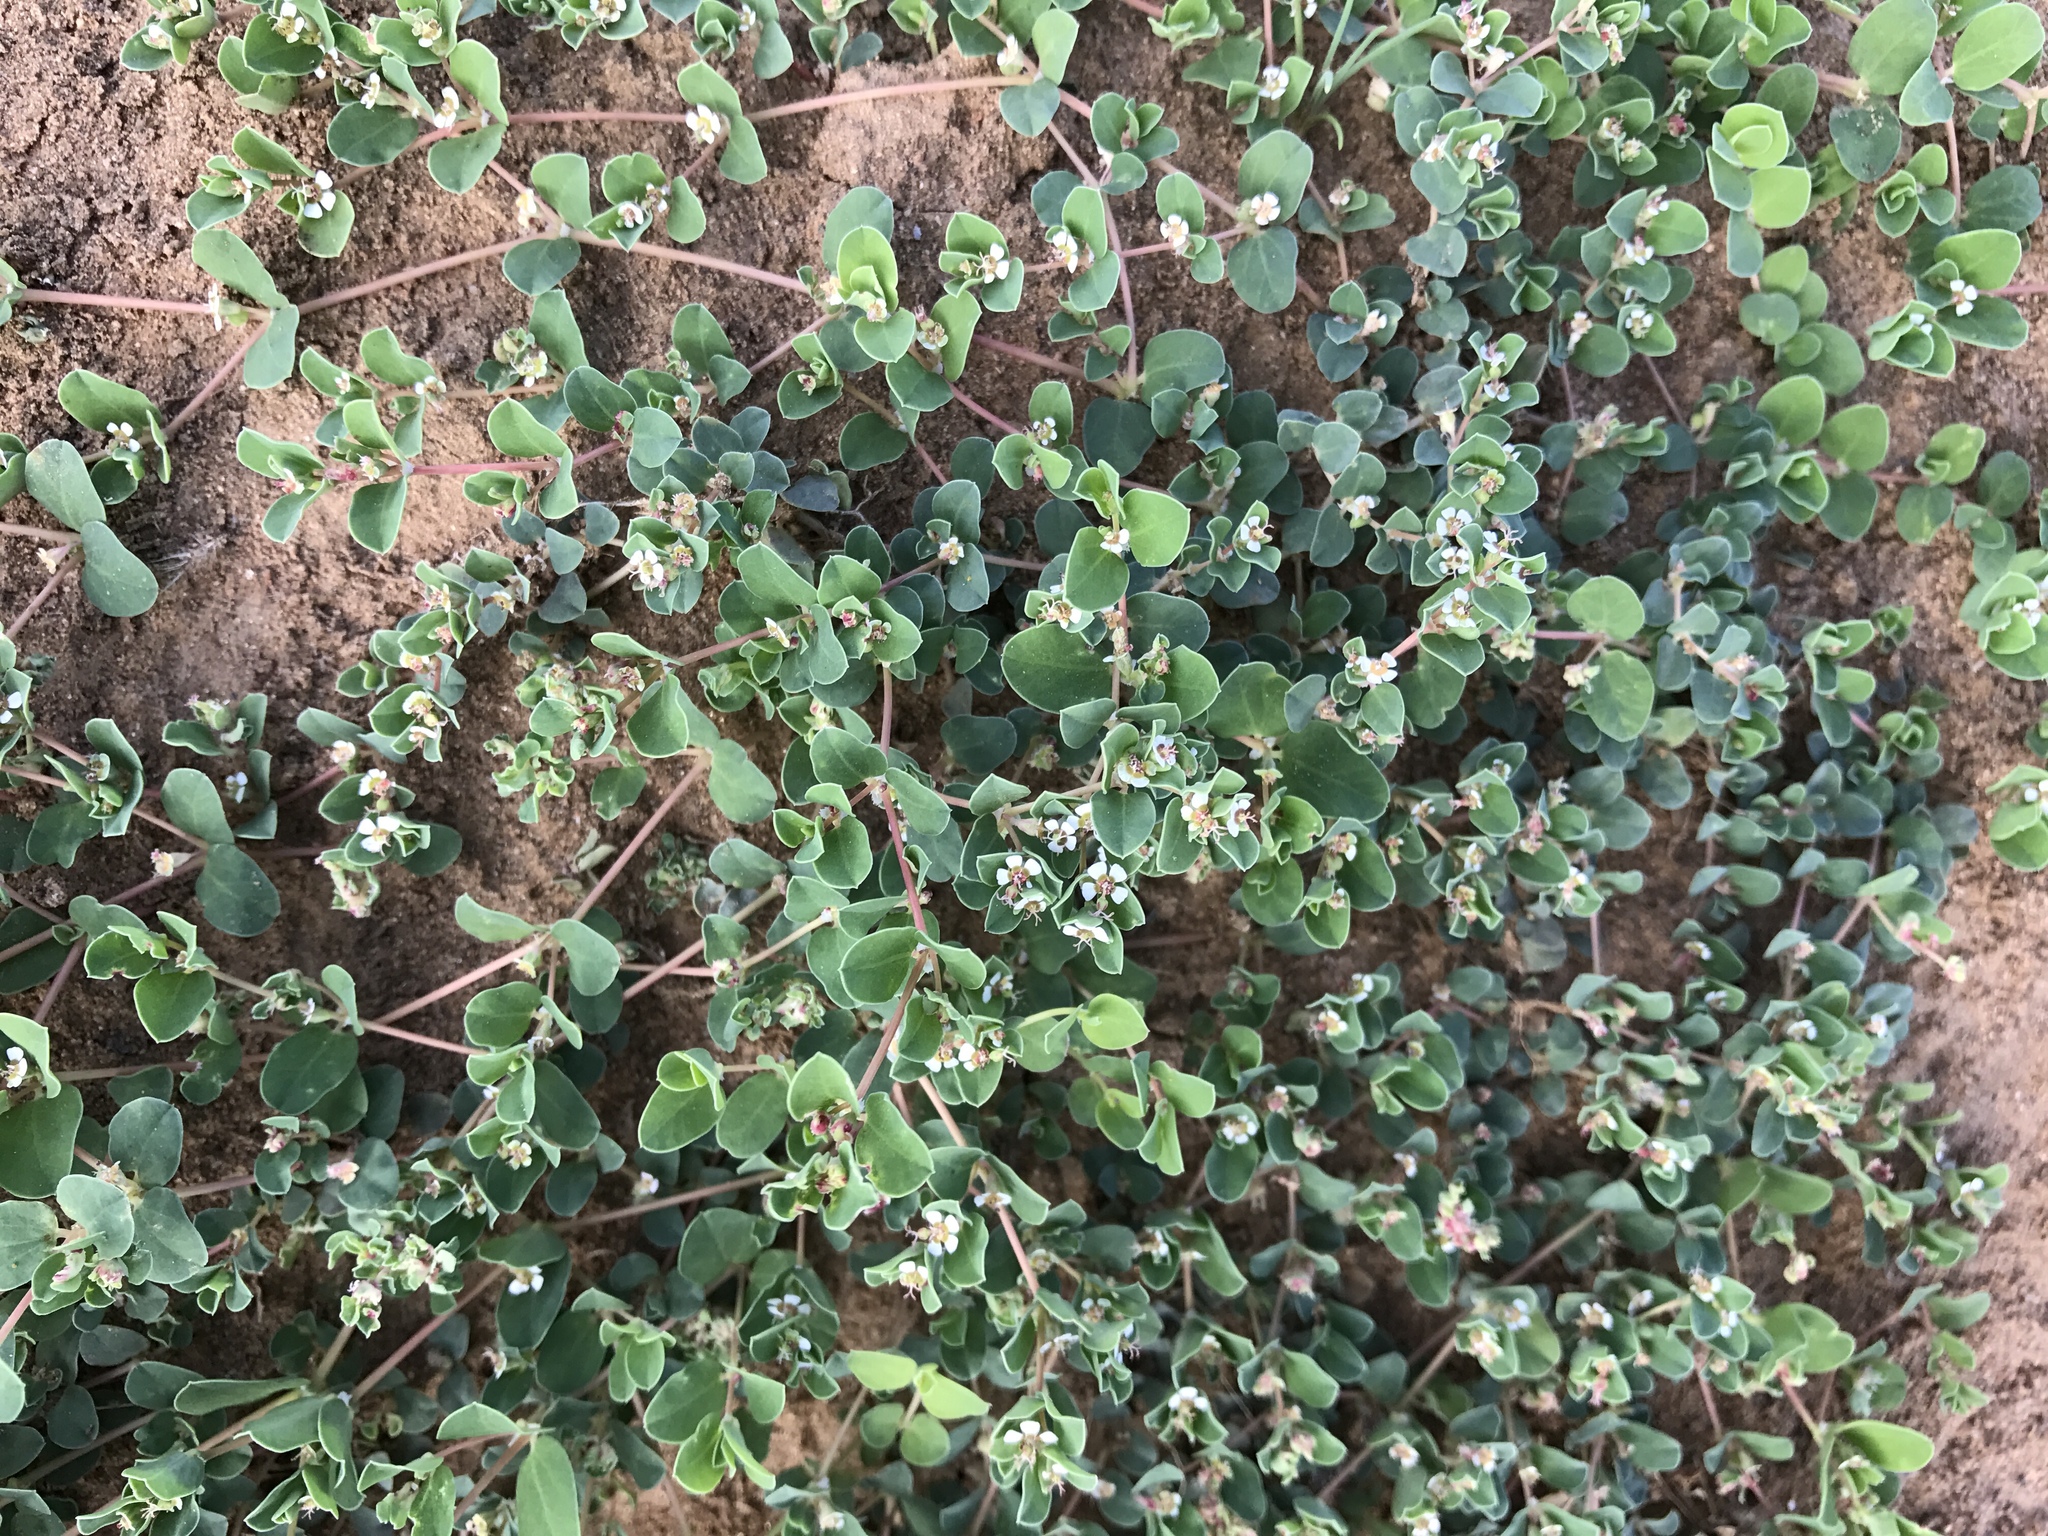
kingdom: Plantae
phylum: Tracheophyta
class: Magnoliopsida
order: Malpighiales
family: Euphorbiaceae
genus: Euphorbia
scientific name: Euphorbia albomarginata
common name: Whitemargin sandmat
